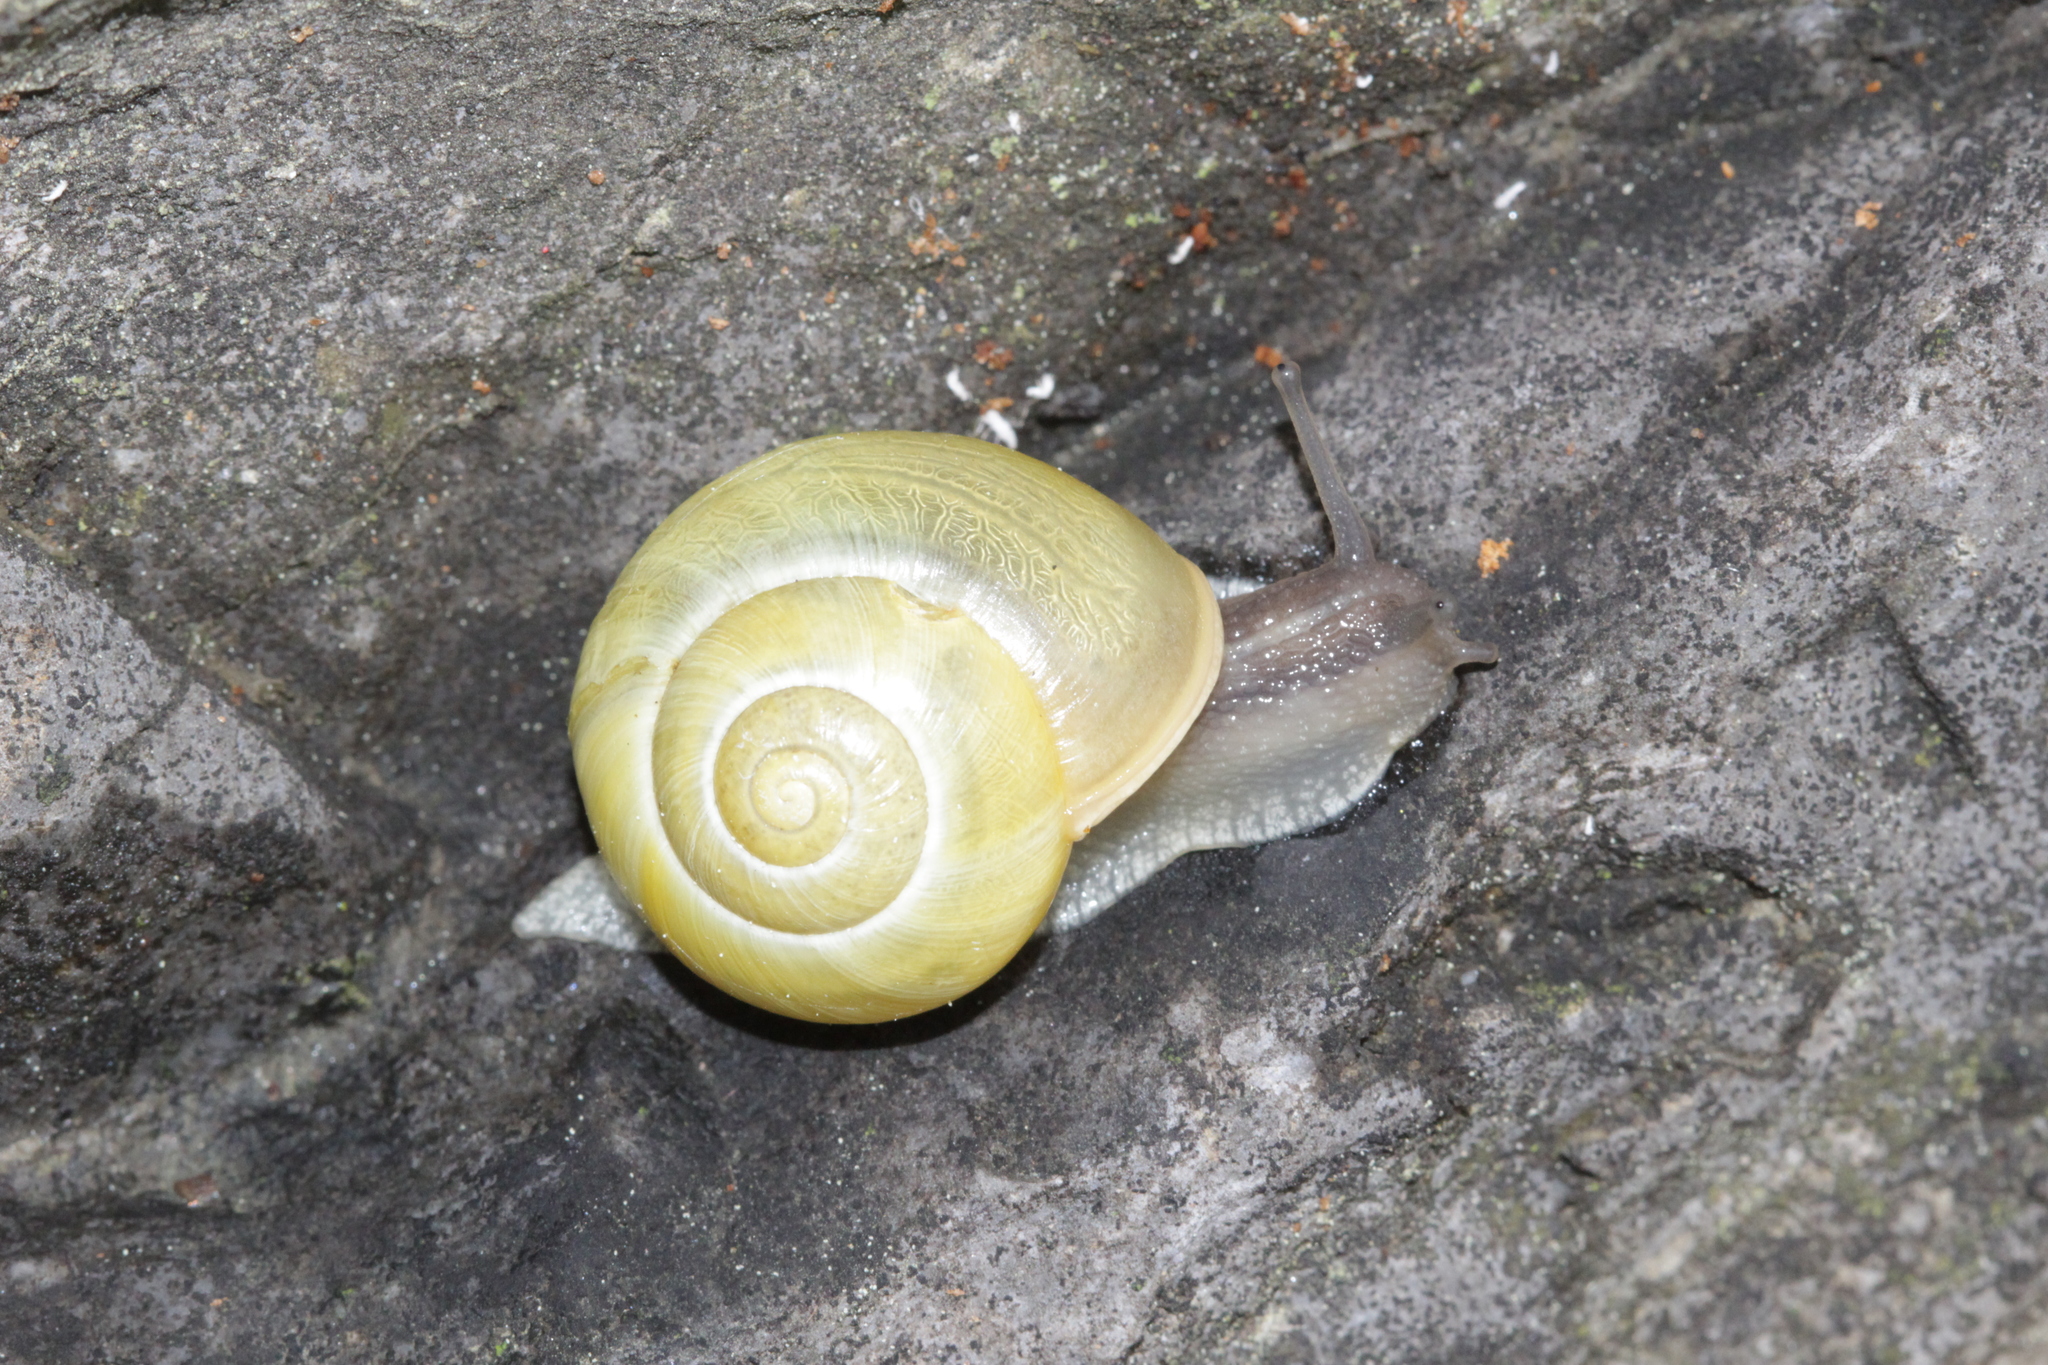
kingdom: Animalia
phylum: Mollusca
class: Gastropoda
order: Stylommatophora
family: Helicidae
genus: Cepaea
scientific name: Cepaea
